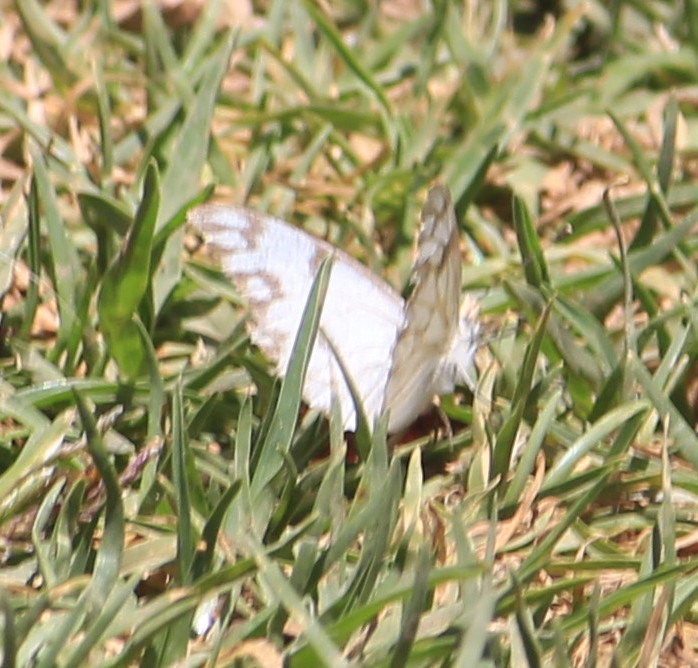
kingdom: Animalia
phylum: Arthropoda
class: Insecta
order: Lepidoptera
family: Pieridae
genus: Pontia
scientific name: Pontia protodice
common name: Checkered white
